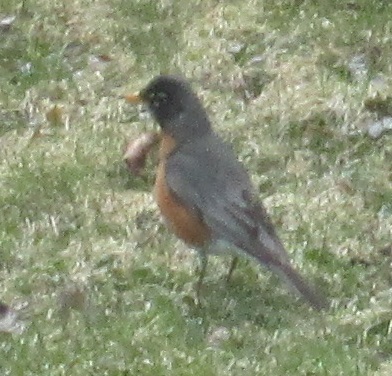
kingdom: Animalia
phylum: Chordata
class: Aves
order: Passeriformes
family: Turdidae
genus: Turdus
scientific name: Turdus migratorius
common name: American robin
